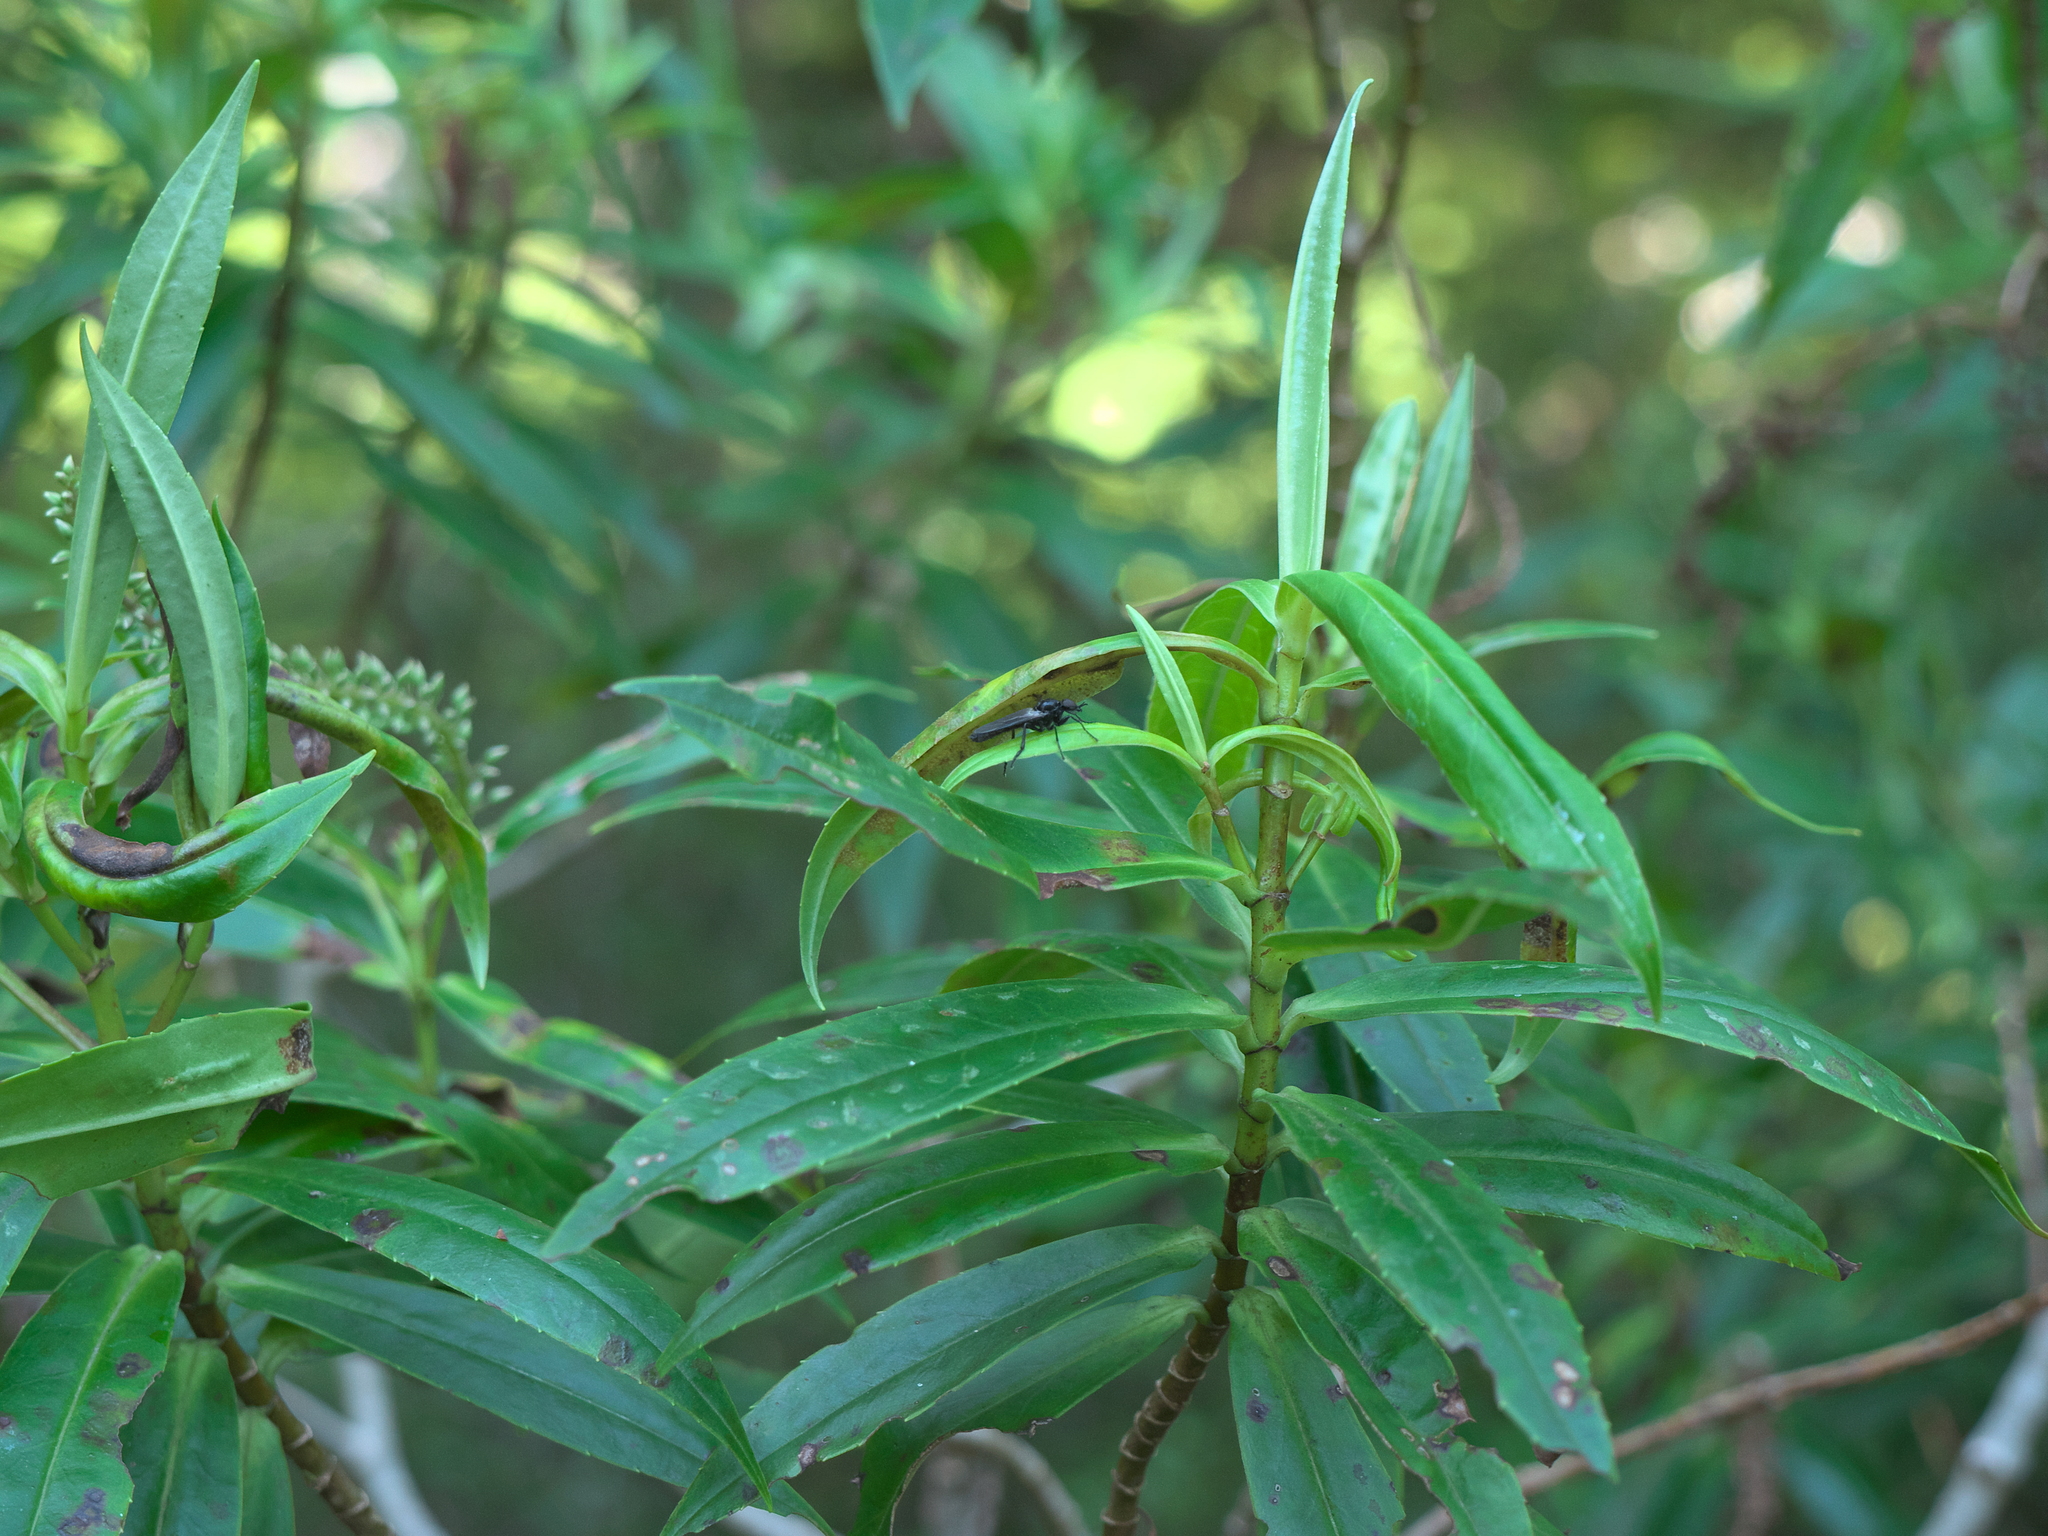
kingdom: Plantae
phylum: Tracheophyta
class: Magnoliopsida
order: Lamiales
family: Plantaginaceae
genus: Veronica
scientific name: Veronica salicifolia
